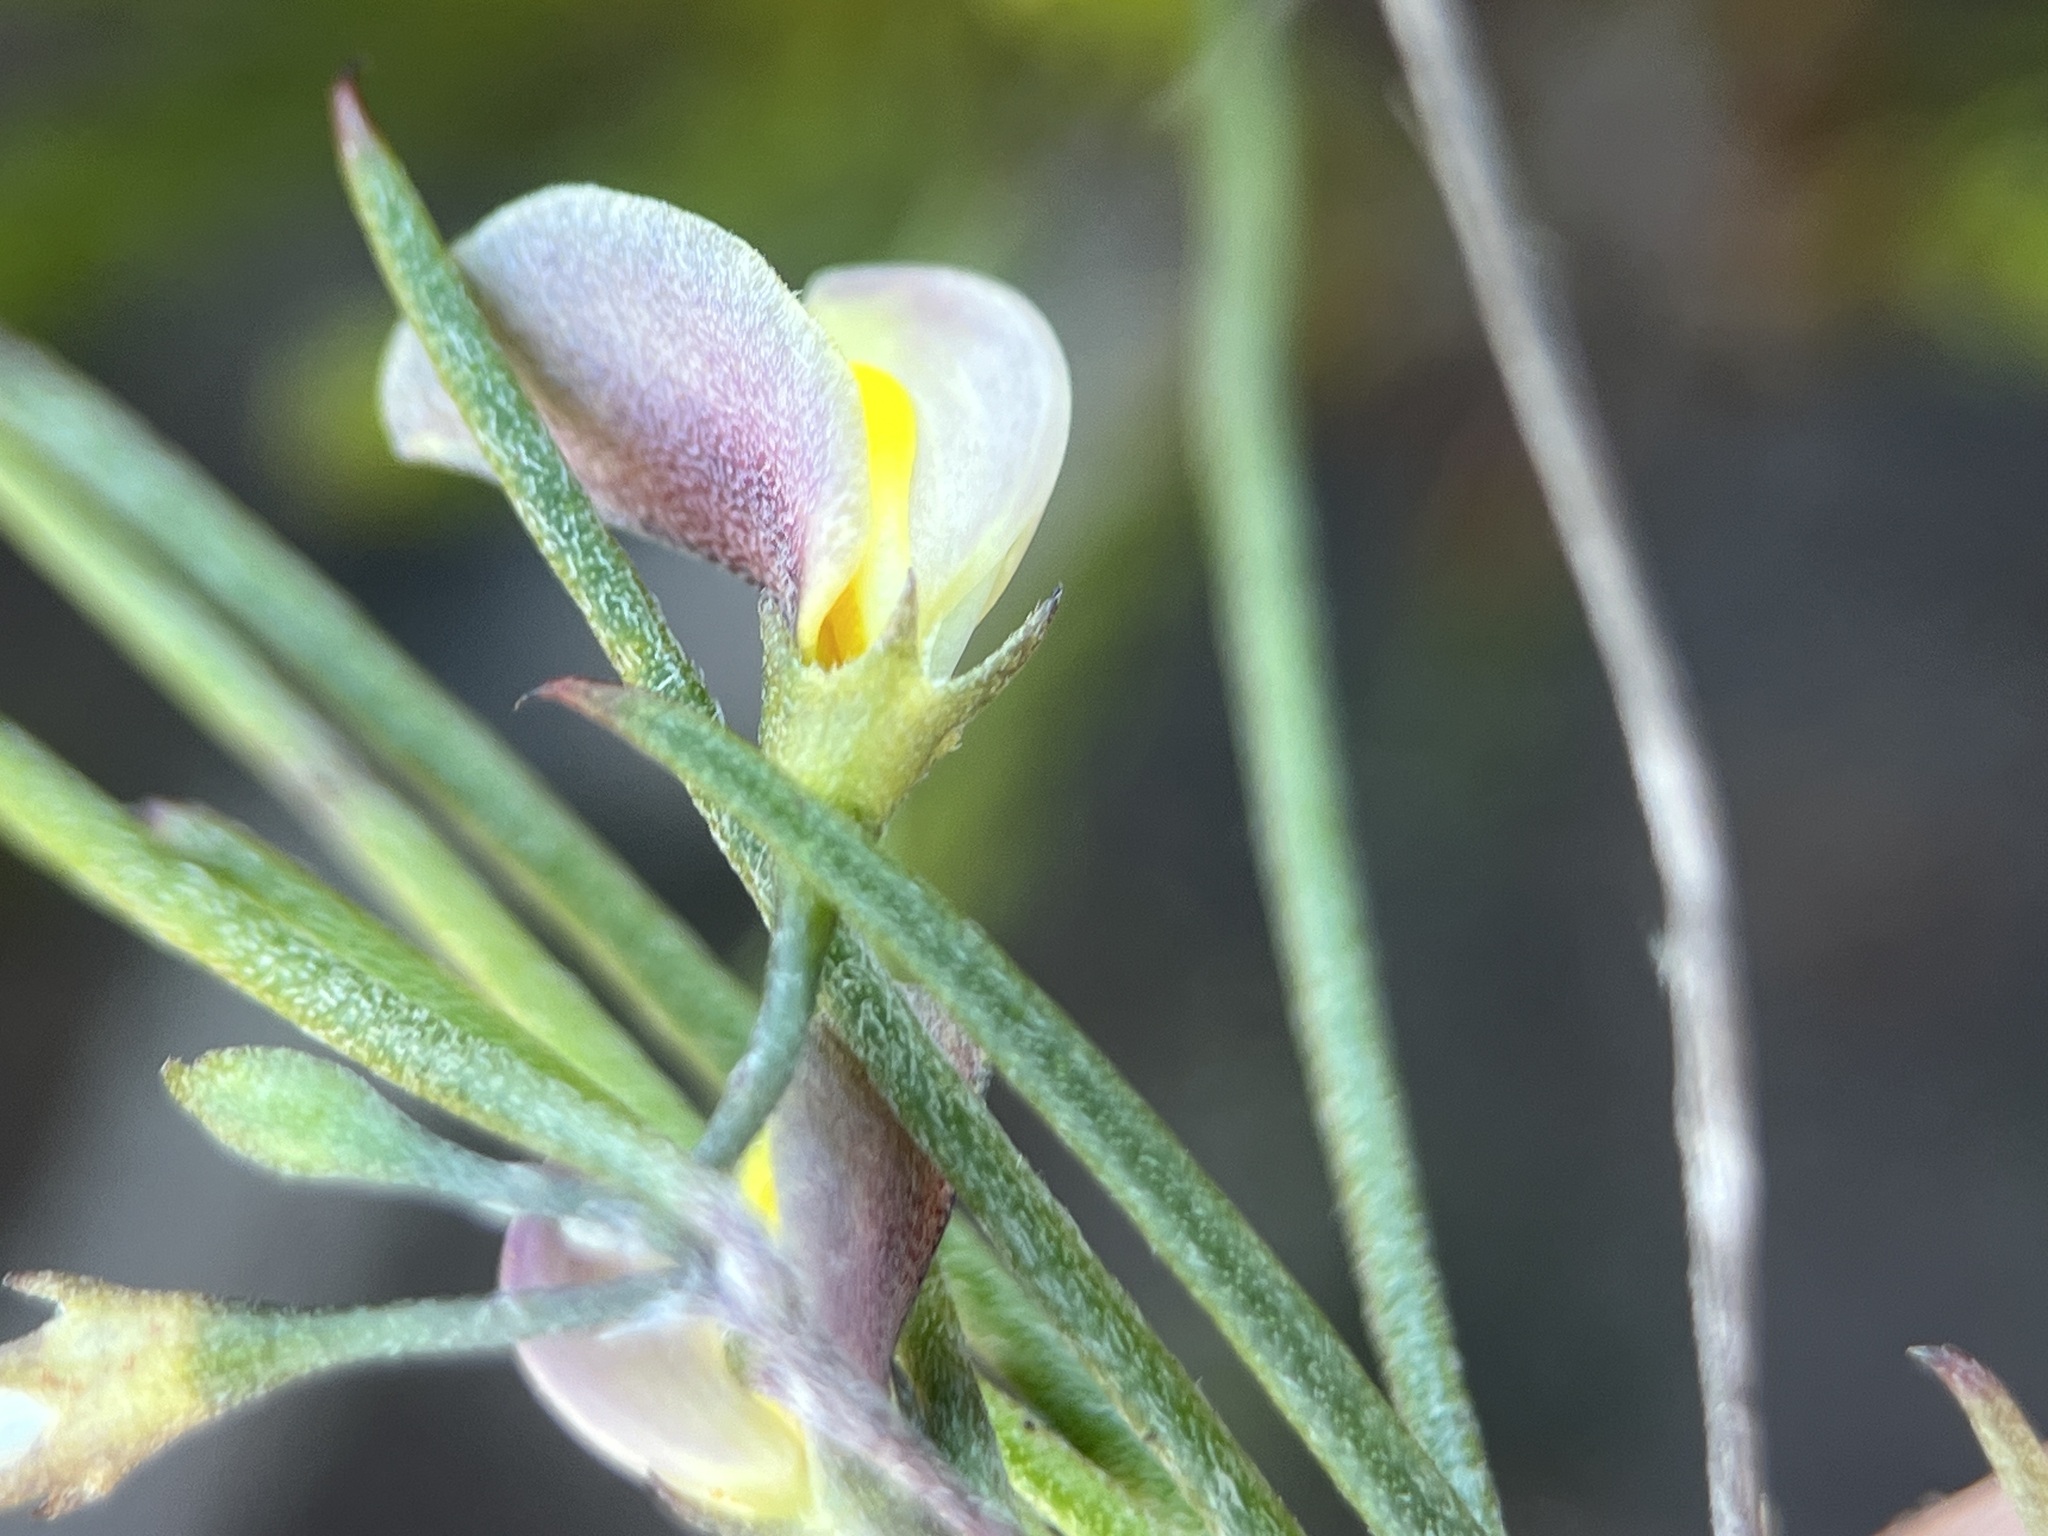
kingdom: Plantae
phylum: Tracheophyta
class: Magnoliopsida
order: Fabales
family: Fabaceae
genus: Aspalathus
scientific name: Aspalathus lebeckioides
